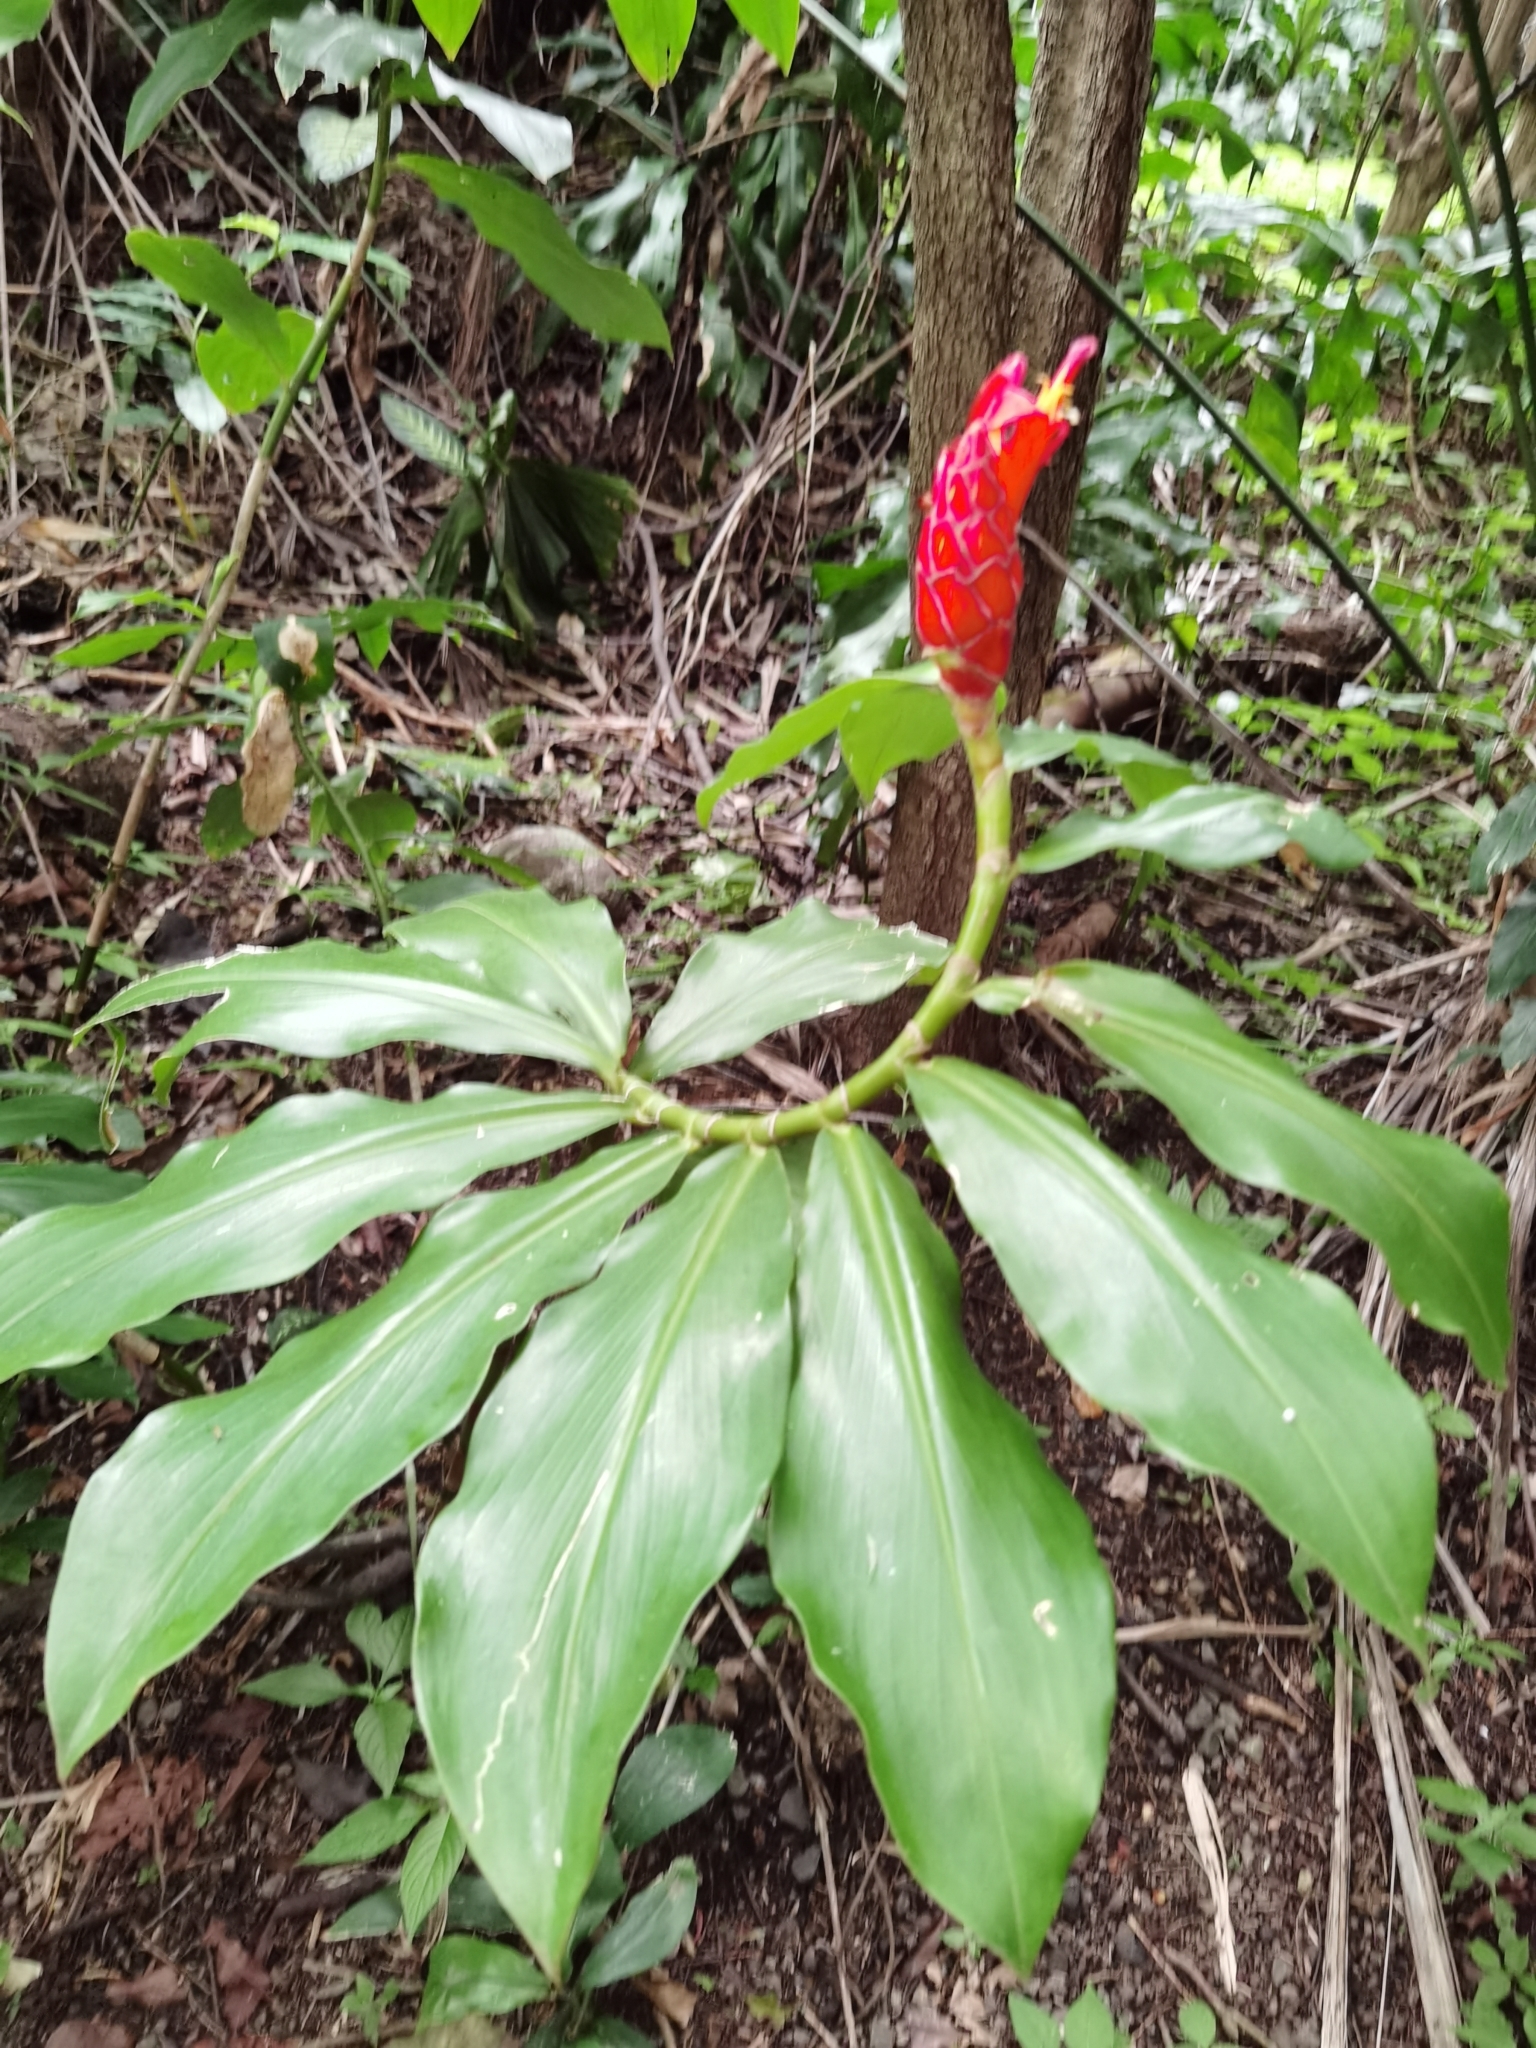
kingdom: Plantae
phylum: Tracheophyta
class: Liliopsida
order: Zingiberales
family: Costaceae
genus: Costus
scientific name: Costus pulverulentus
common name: Spiral ginger
